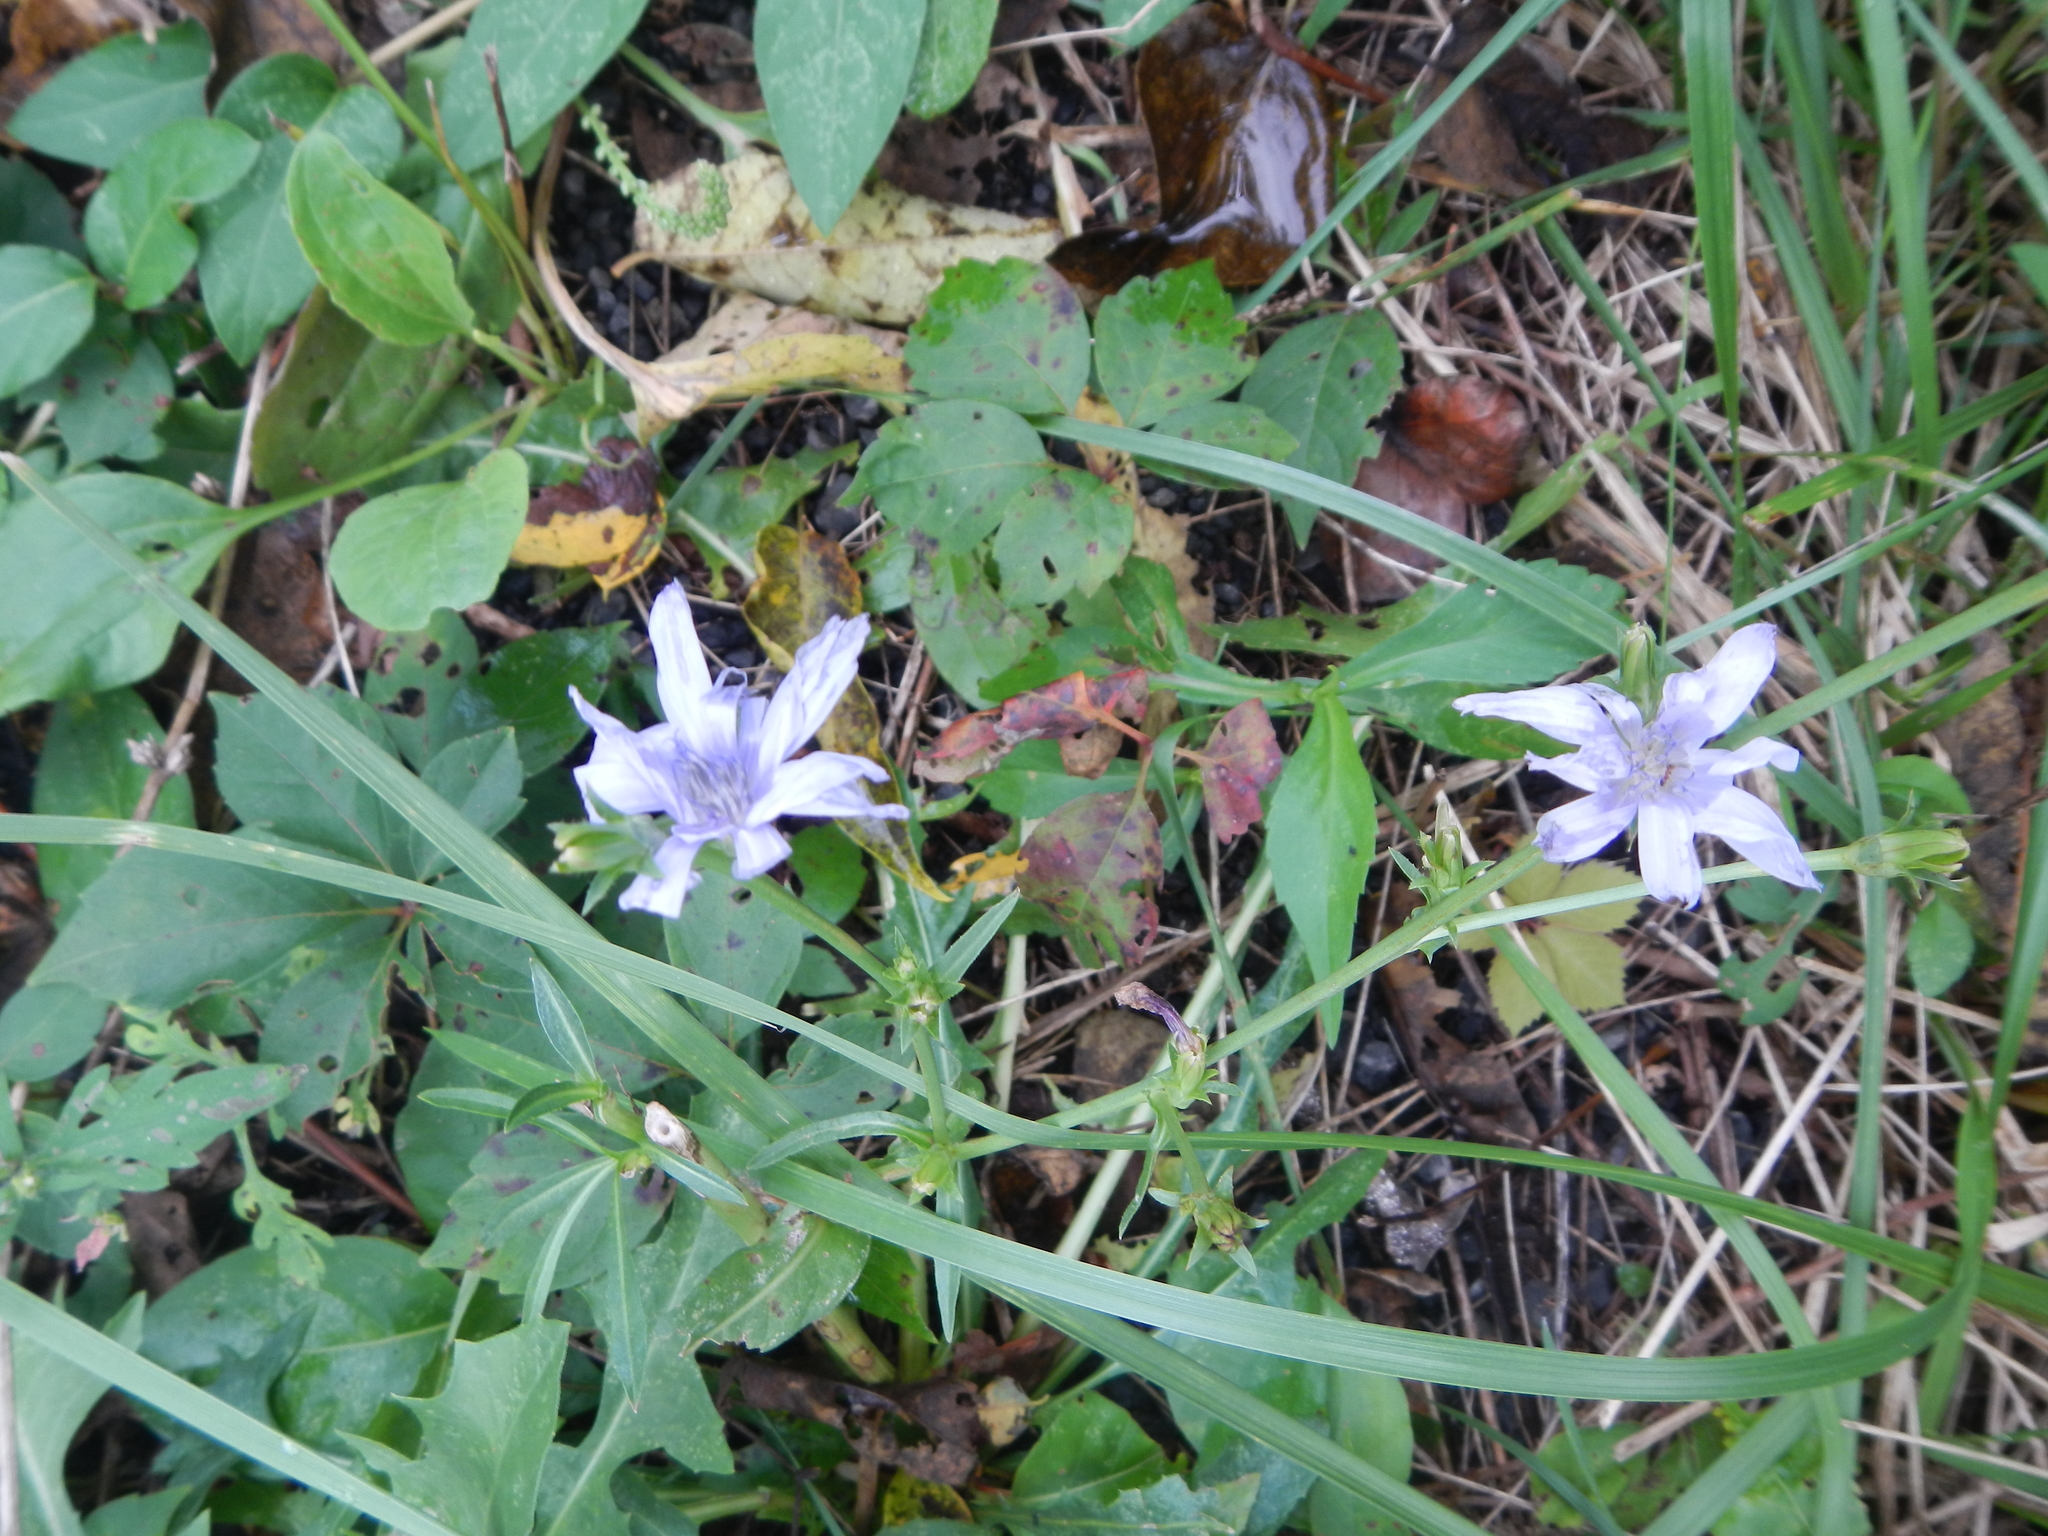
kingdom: Plantae
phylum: Tracheophyta
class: Magnoliopsida
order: Asterales
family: Asteraceae
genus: Cichorium
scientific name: Cichorium intybus
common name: Chicory
